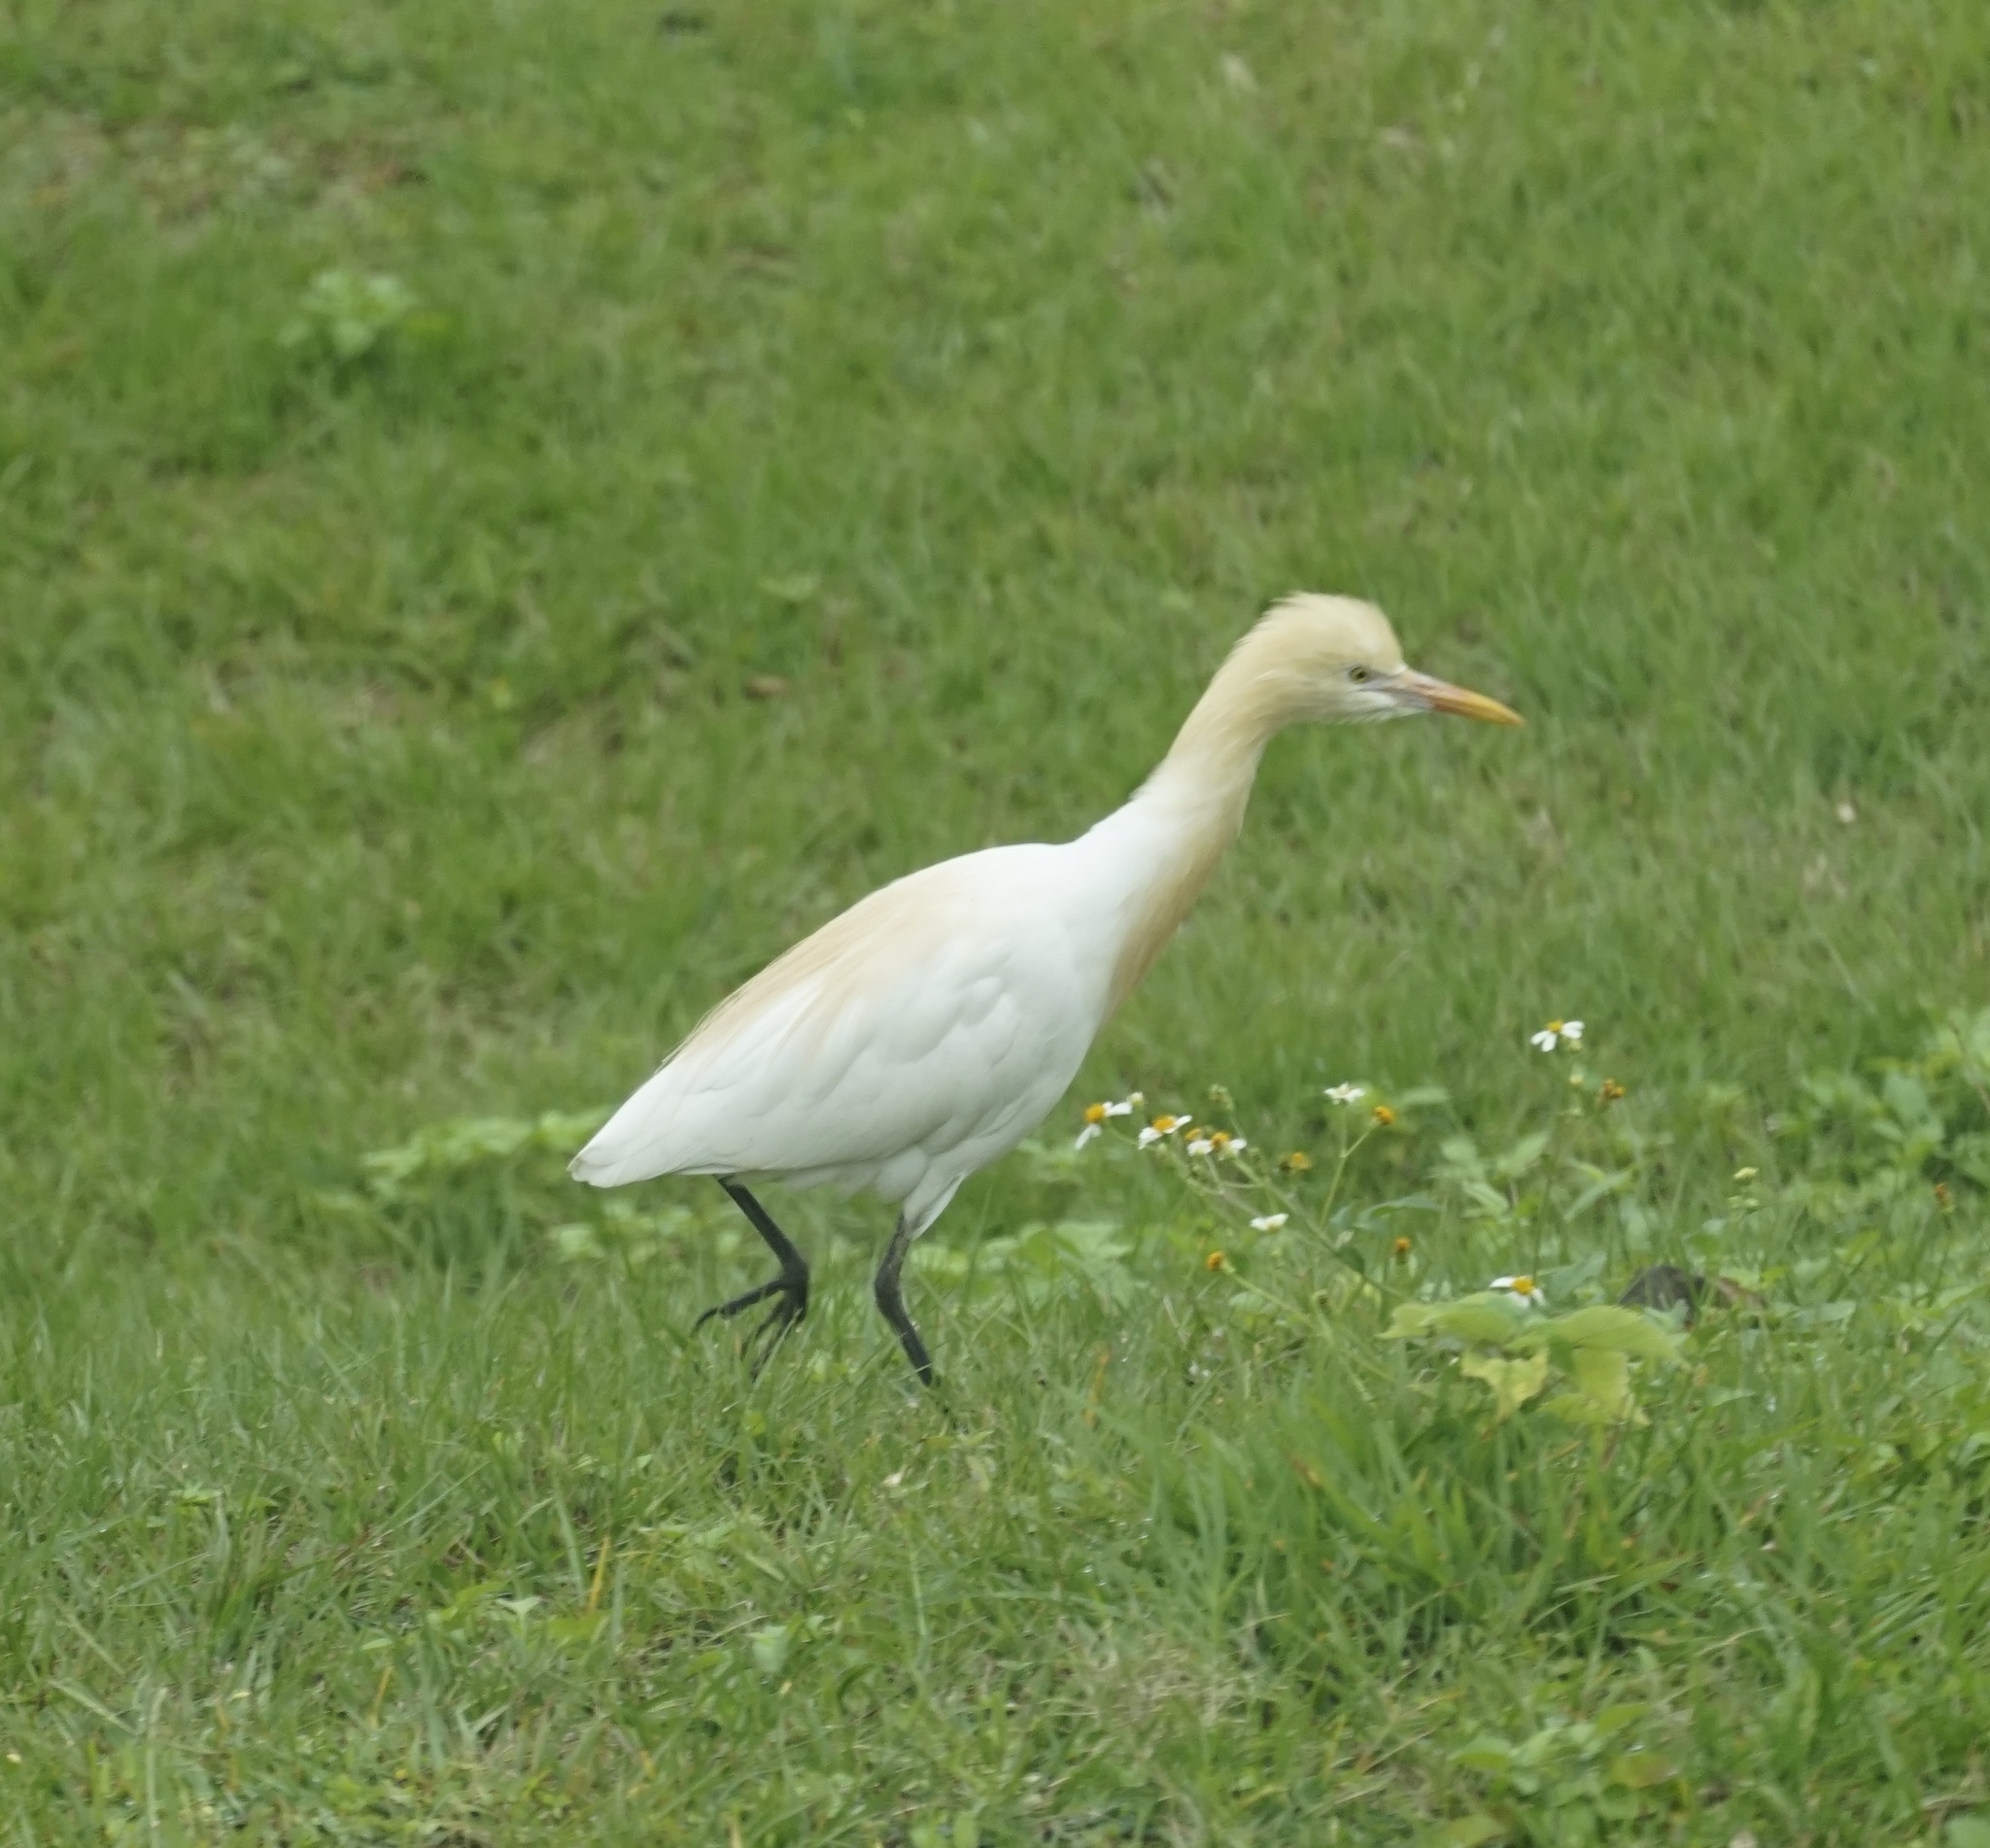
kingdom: Animalia
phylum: Chordata
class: Aves
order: Pelecaniformes
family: Ardeidae
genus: Bubulcus
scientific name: Bubulcus coromandus
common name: Eastern cattle egret
